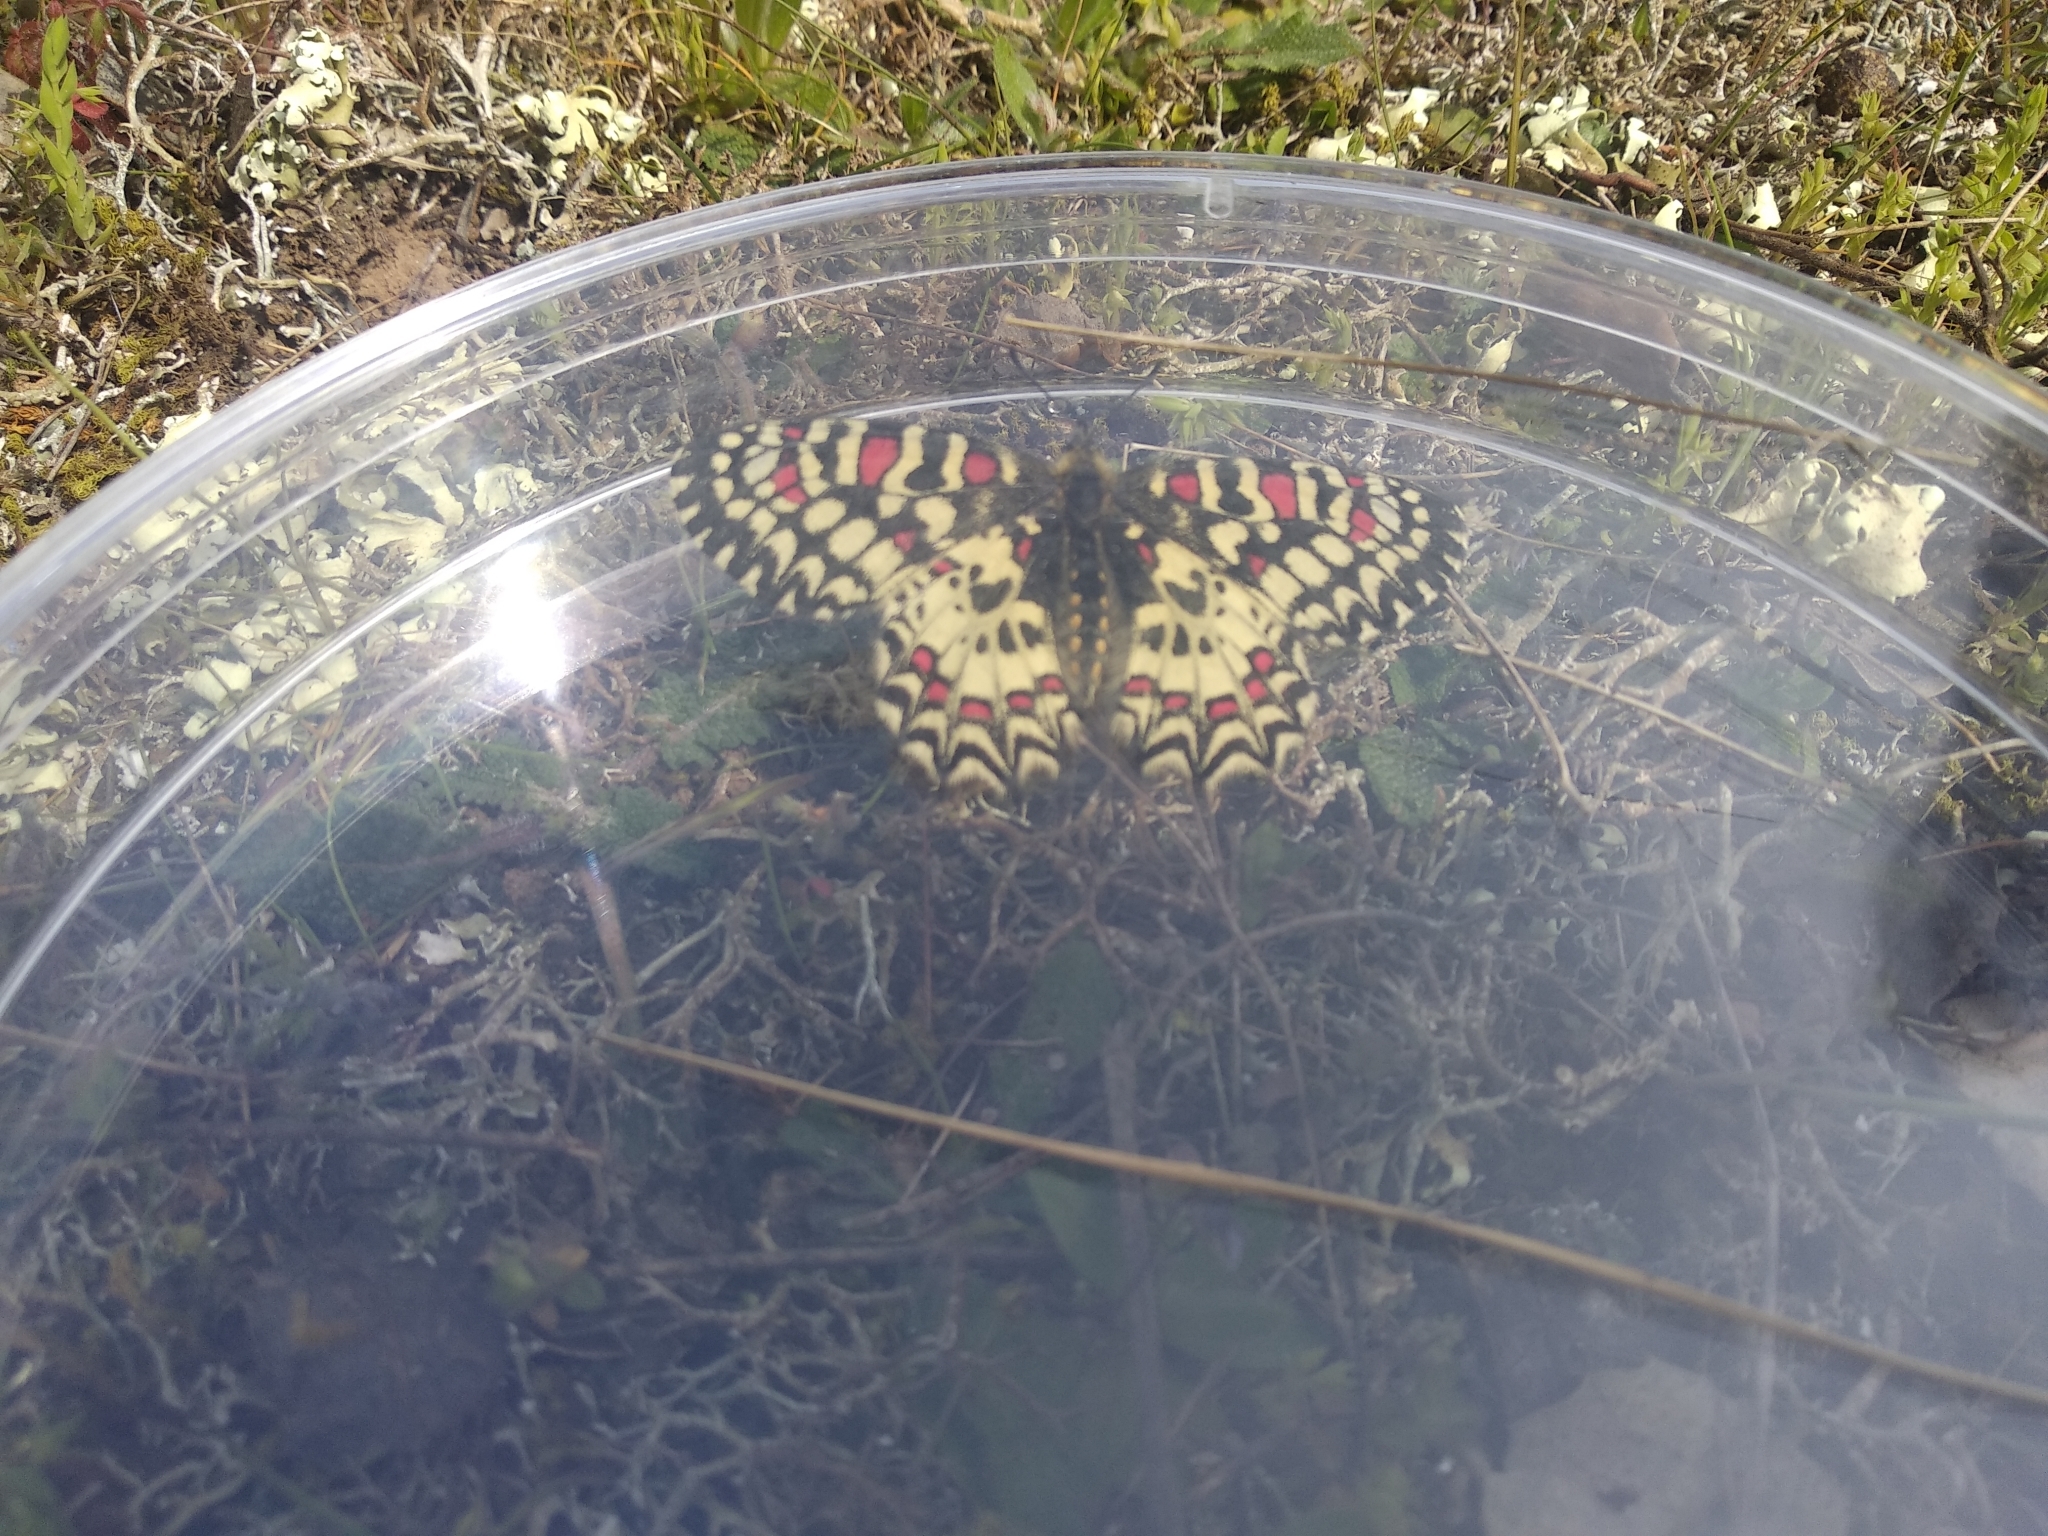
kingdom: Animalia
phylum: Arthropoda
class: Insecta
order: Lepidoptera
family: Papilionidae
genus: Zerynthia
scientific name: Zerynthia rumina
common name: Spanish festoon
